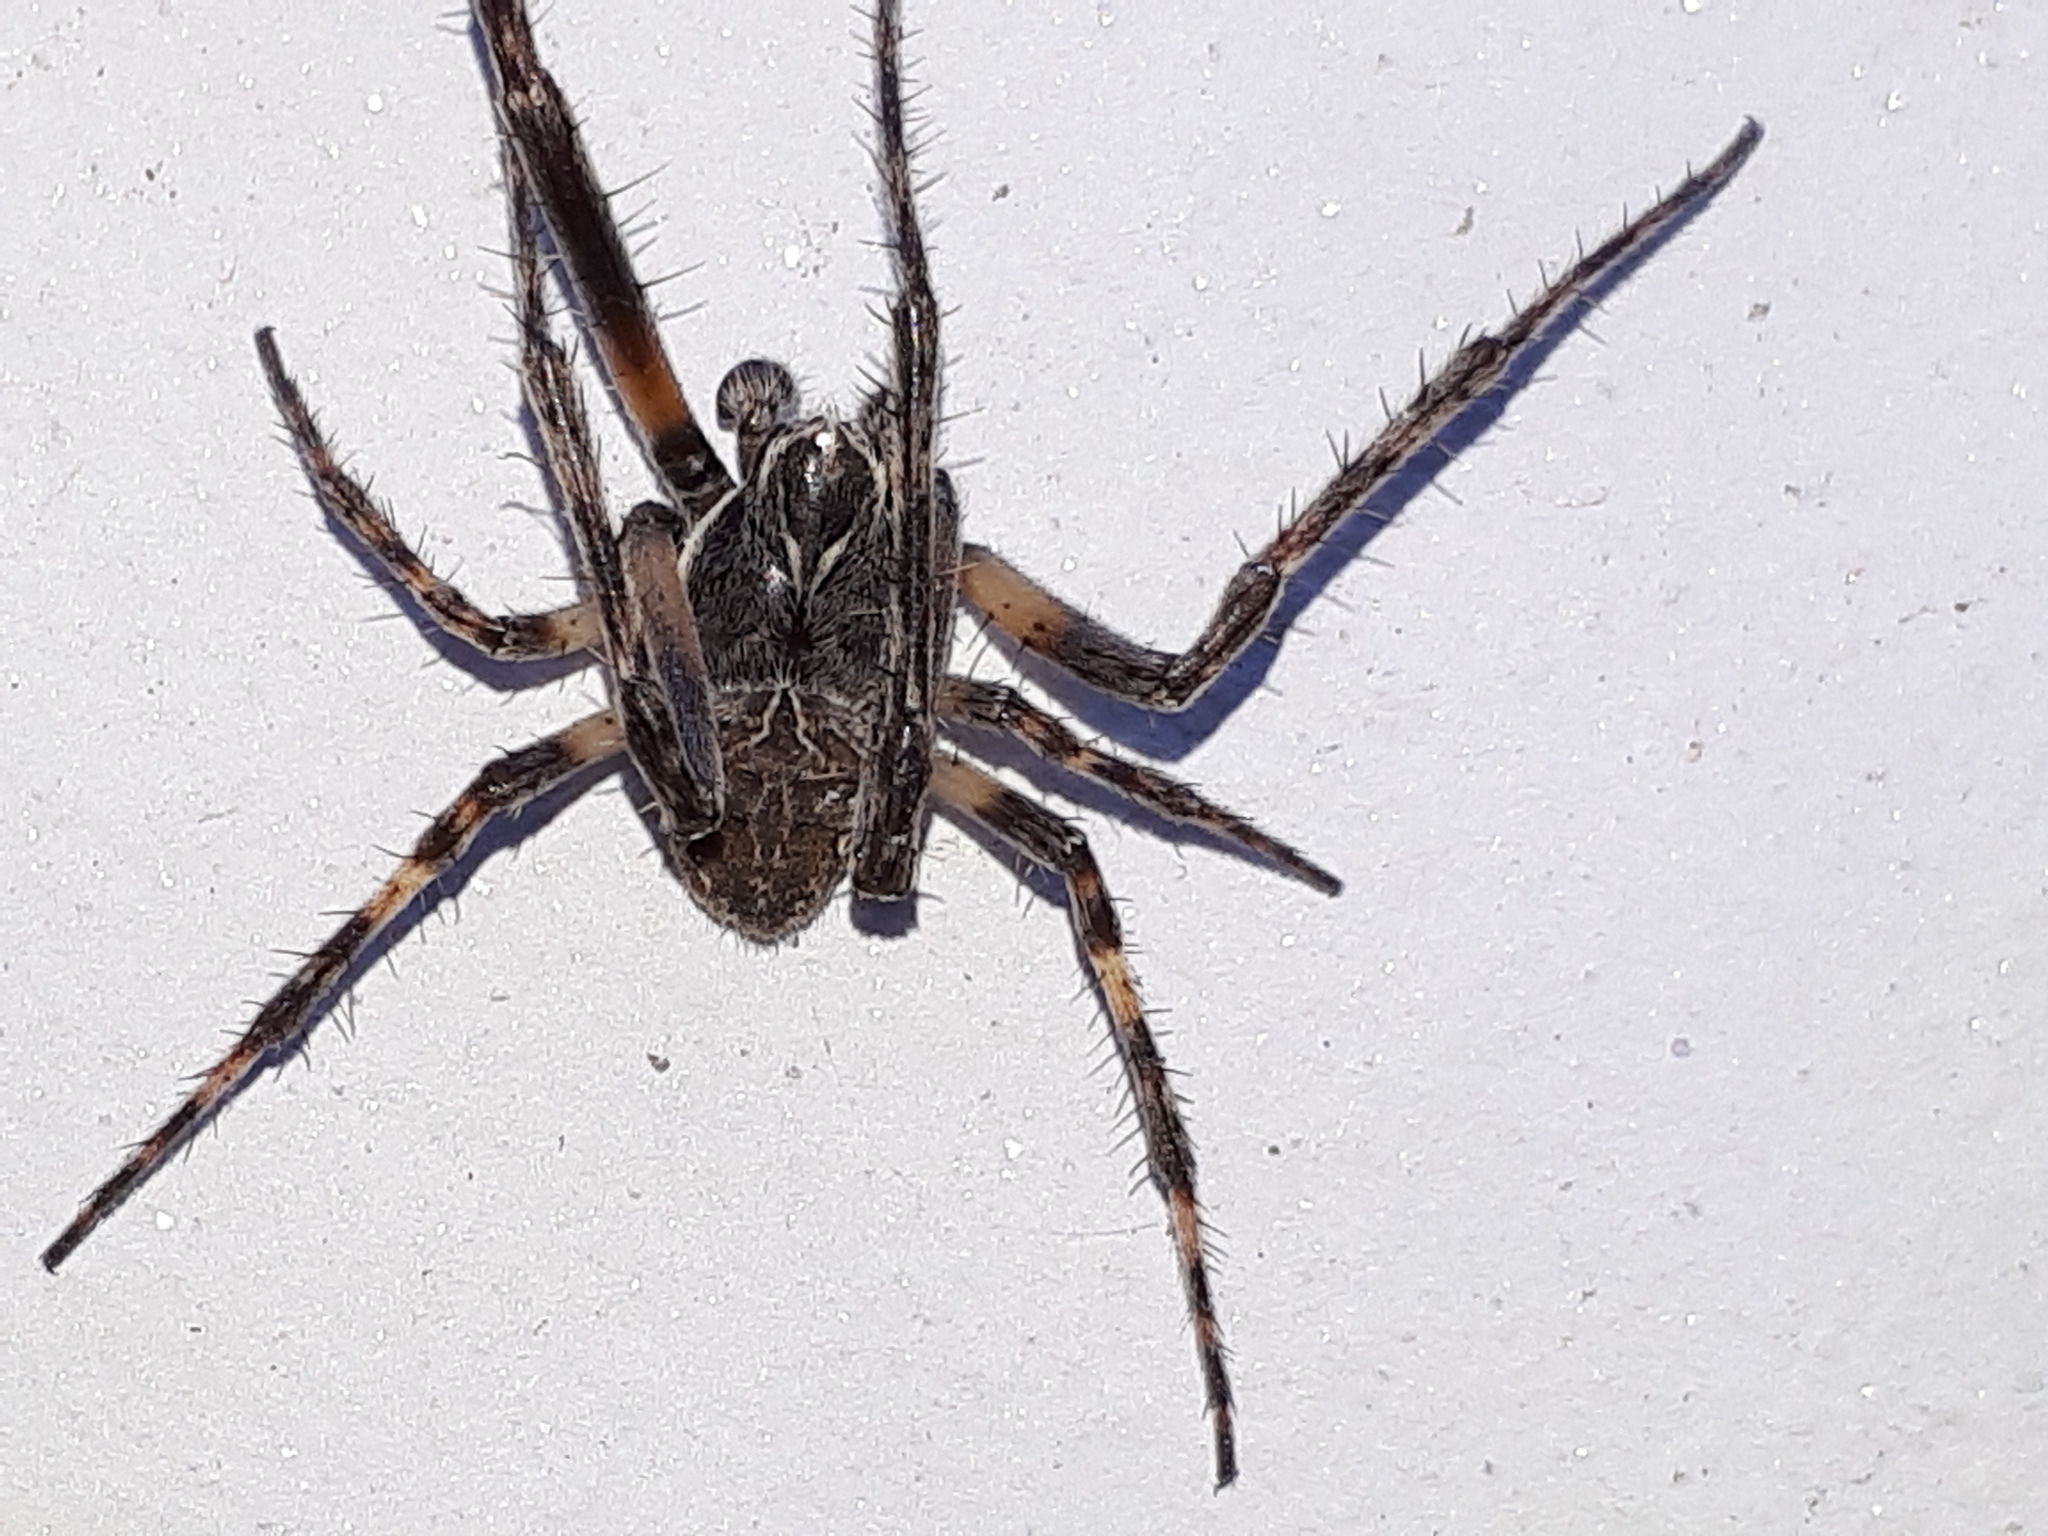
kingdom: Animalia
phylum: Arthropoda
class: Arachnida
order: Araneae
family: Araneidae
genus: Larinioides
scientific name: Larinioides sclopetarius
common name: Bridge orbweaver
